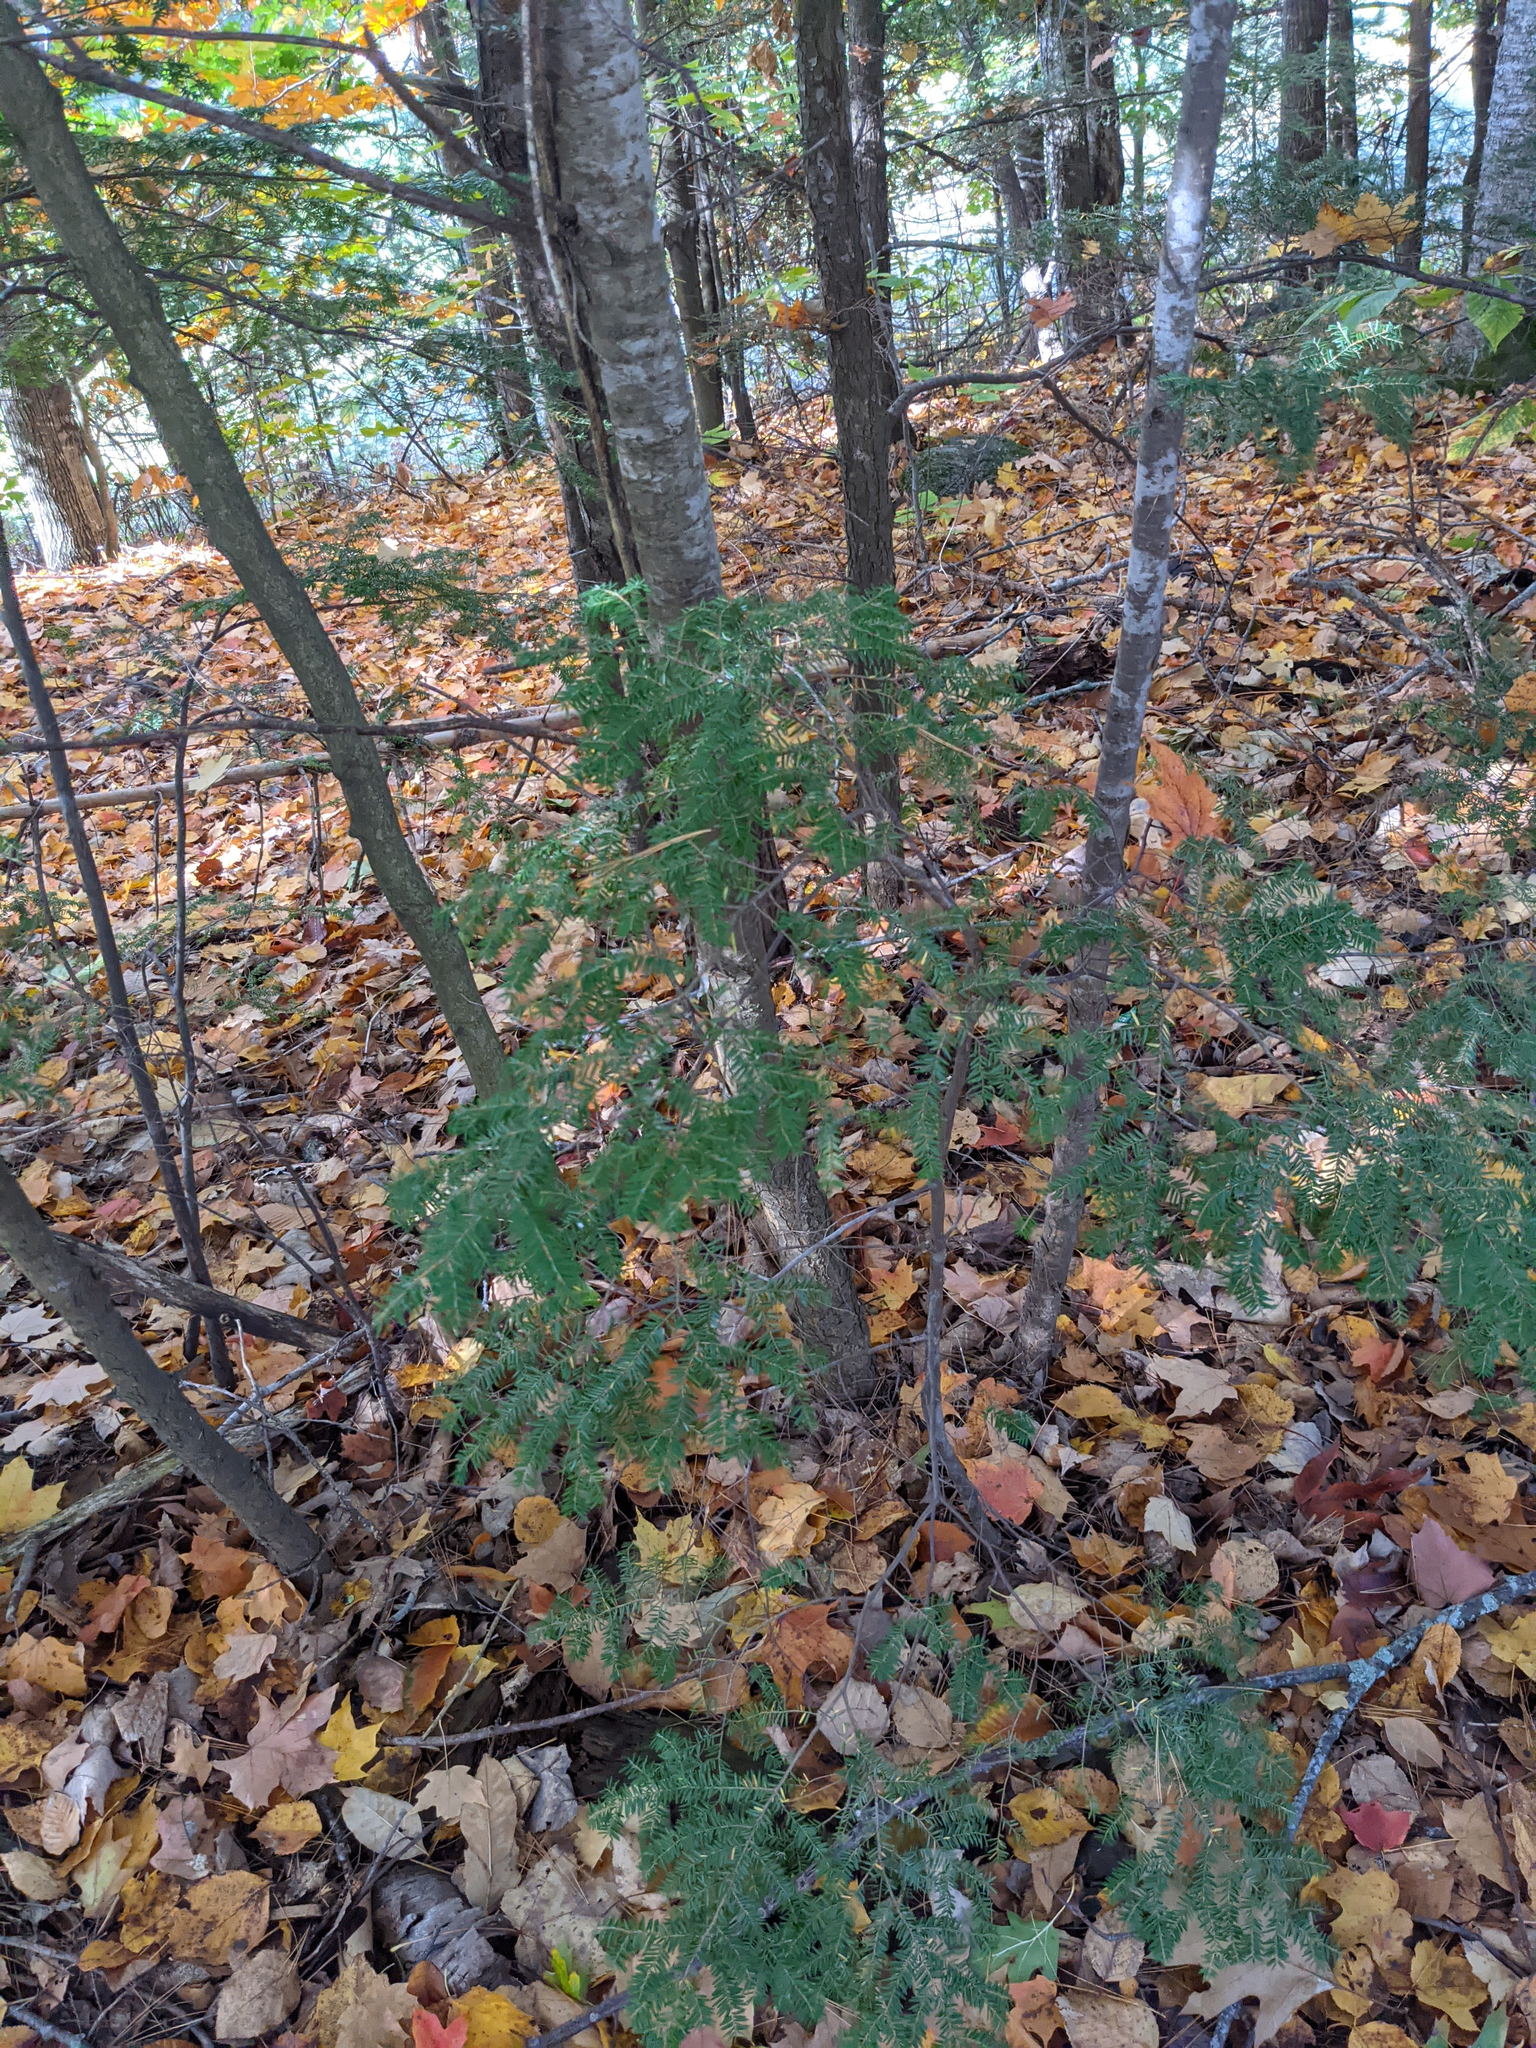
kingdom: Plantae
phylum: Tracheophyta
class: Pinopsida
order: Pinales
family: Pinaceae
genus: Tsuga
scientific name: Tsuga canadensis
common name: Eastern hemlock
